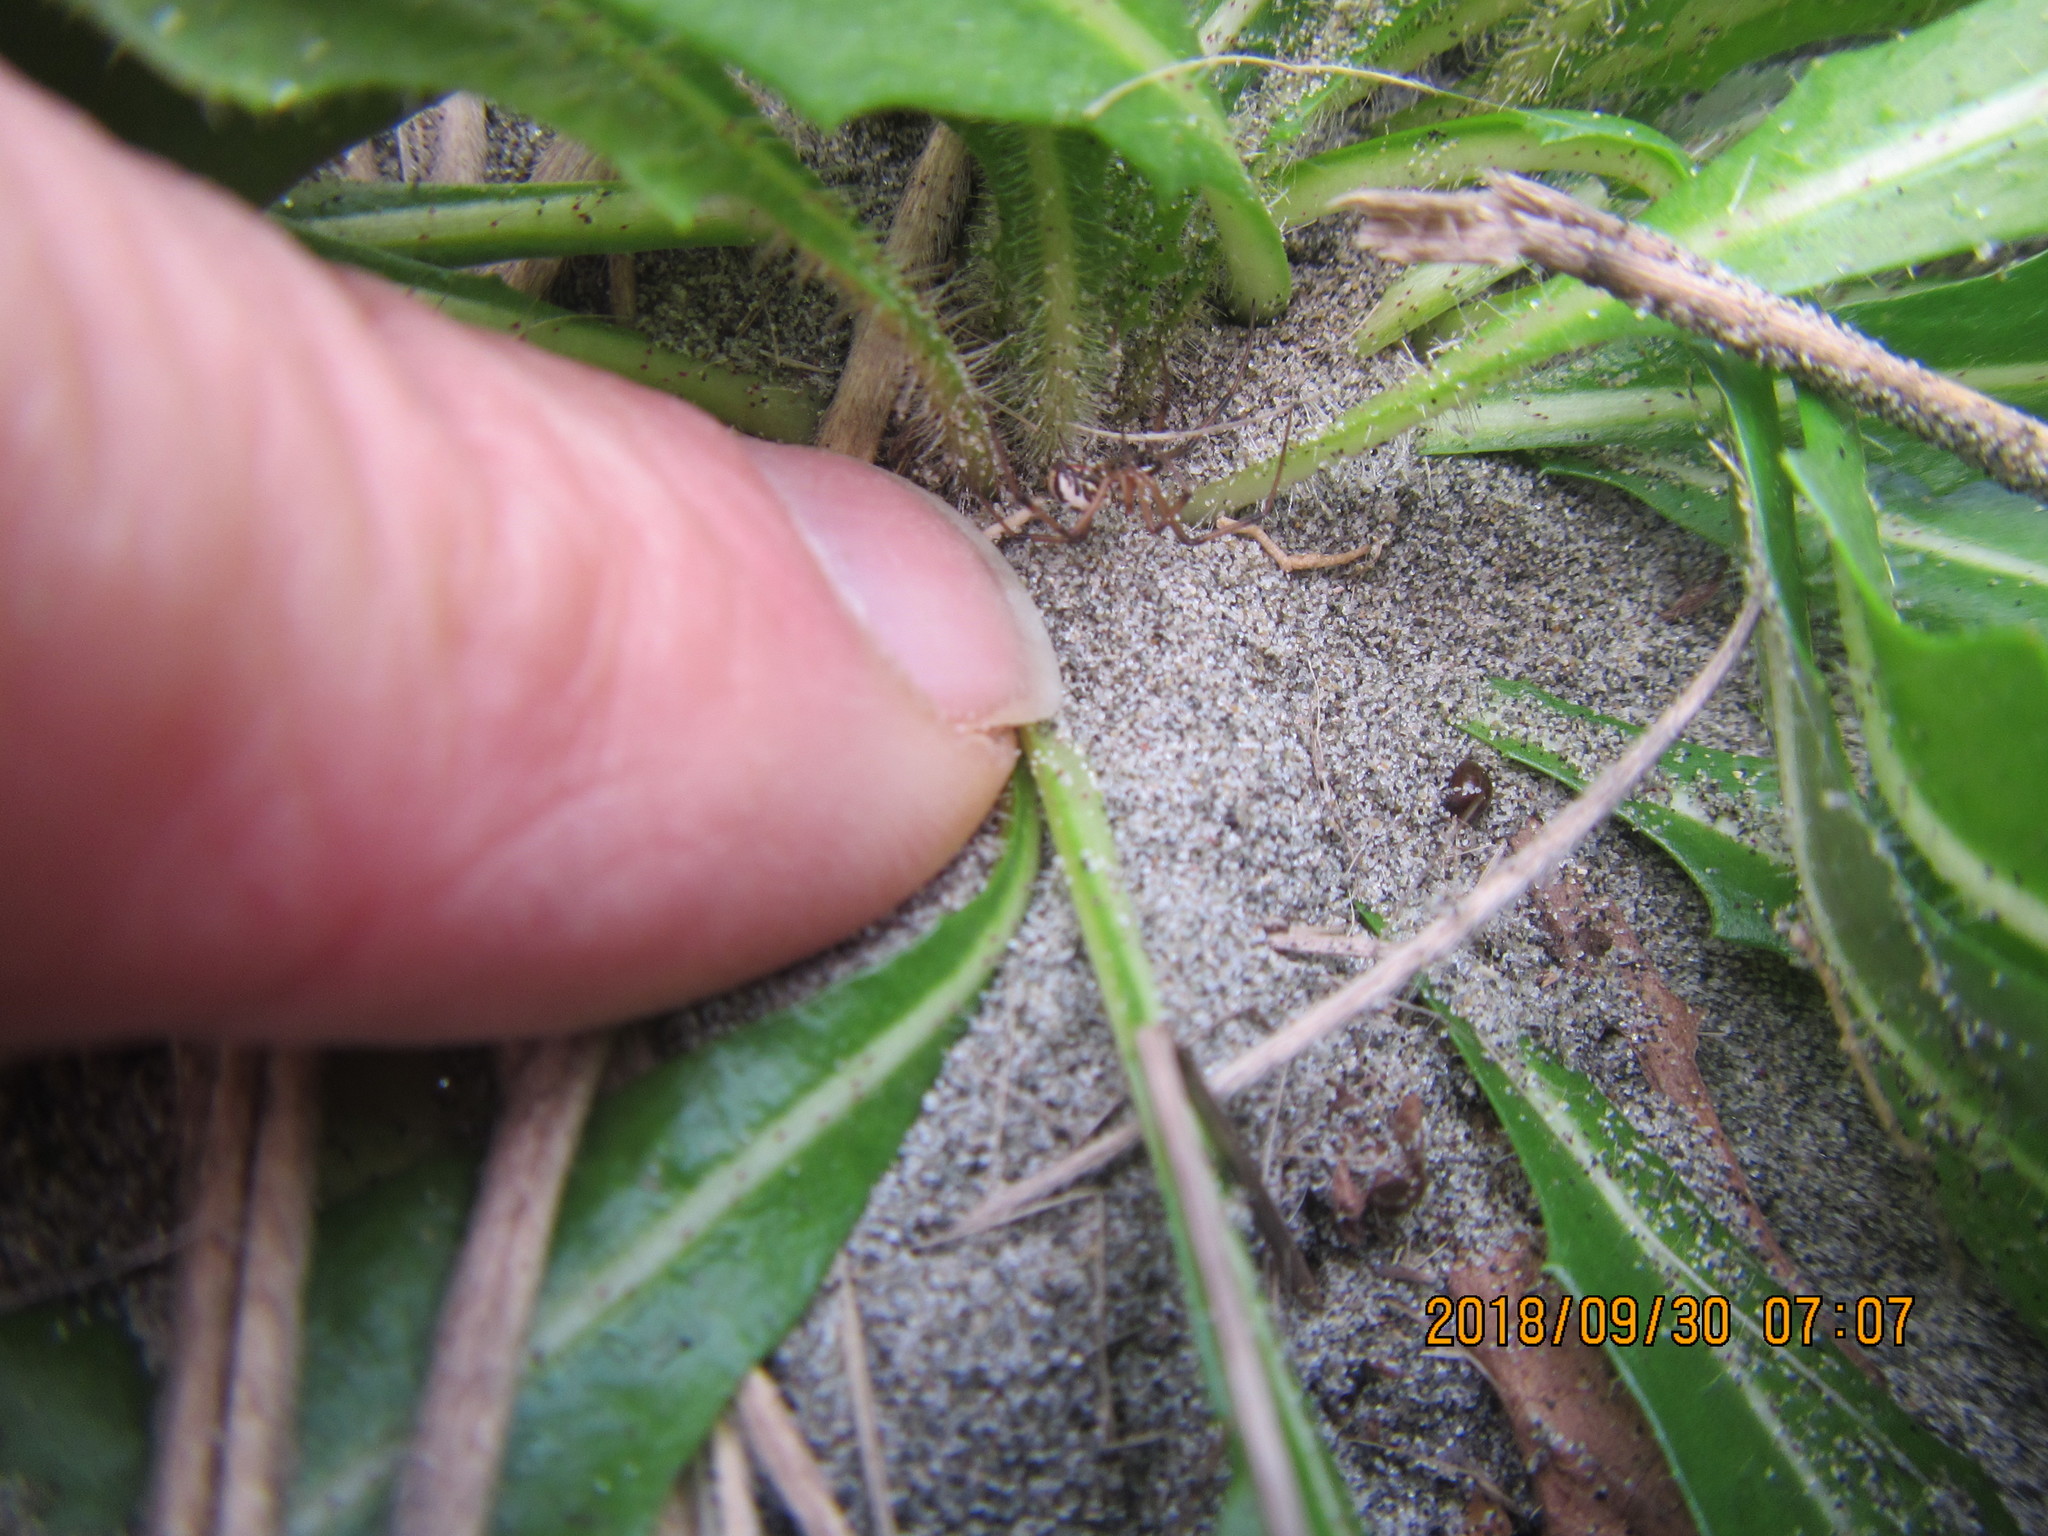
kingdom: Animalia
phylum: Arthropoda
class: Arachnida
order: Araneae
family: Theridiidae
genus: Latrodectus
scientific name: Latrodectus katipo
